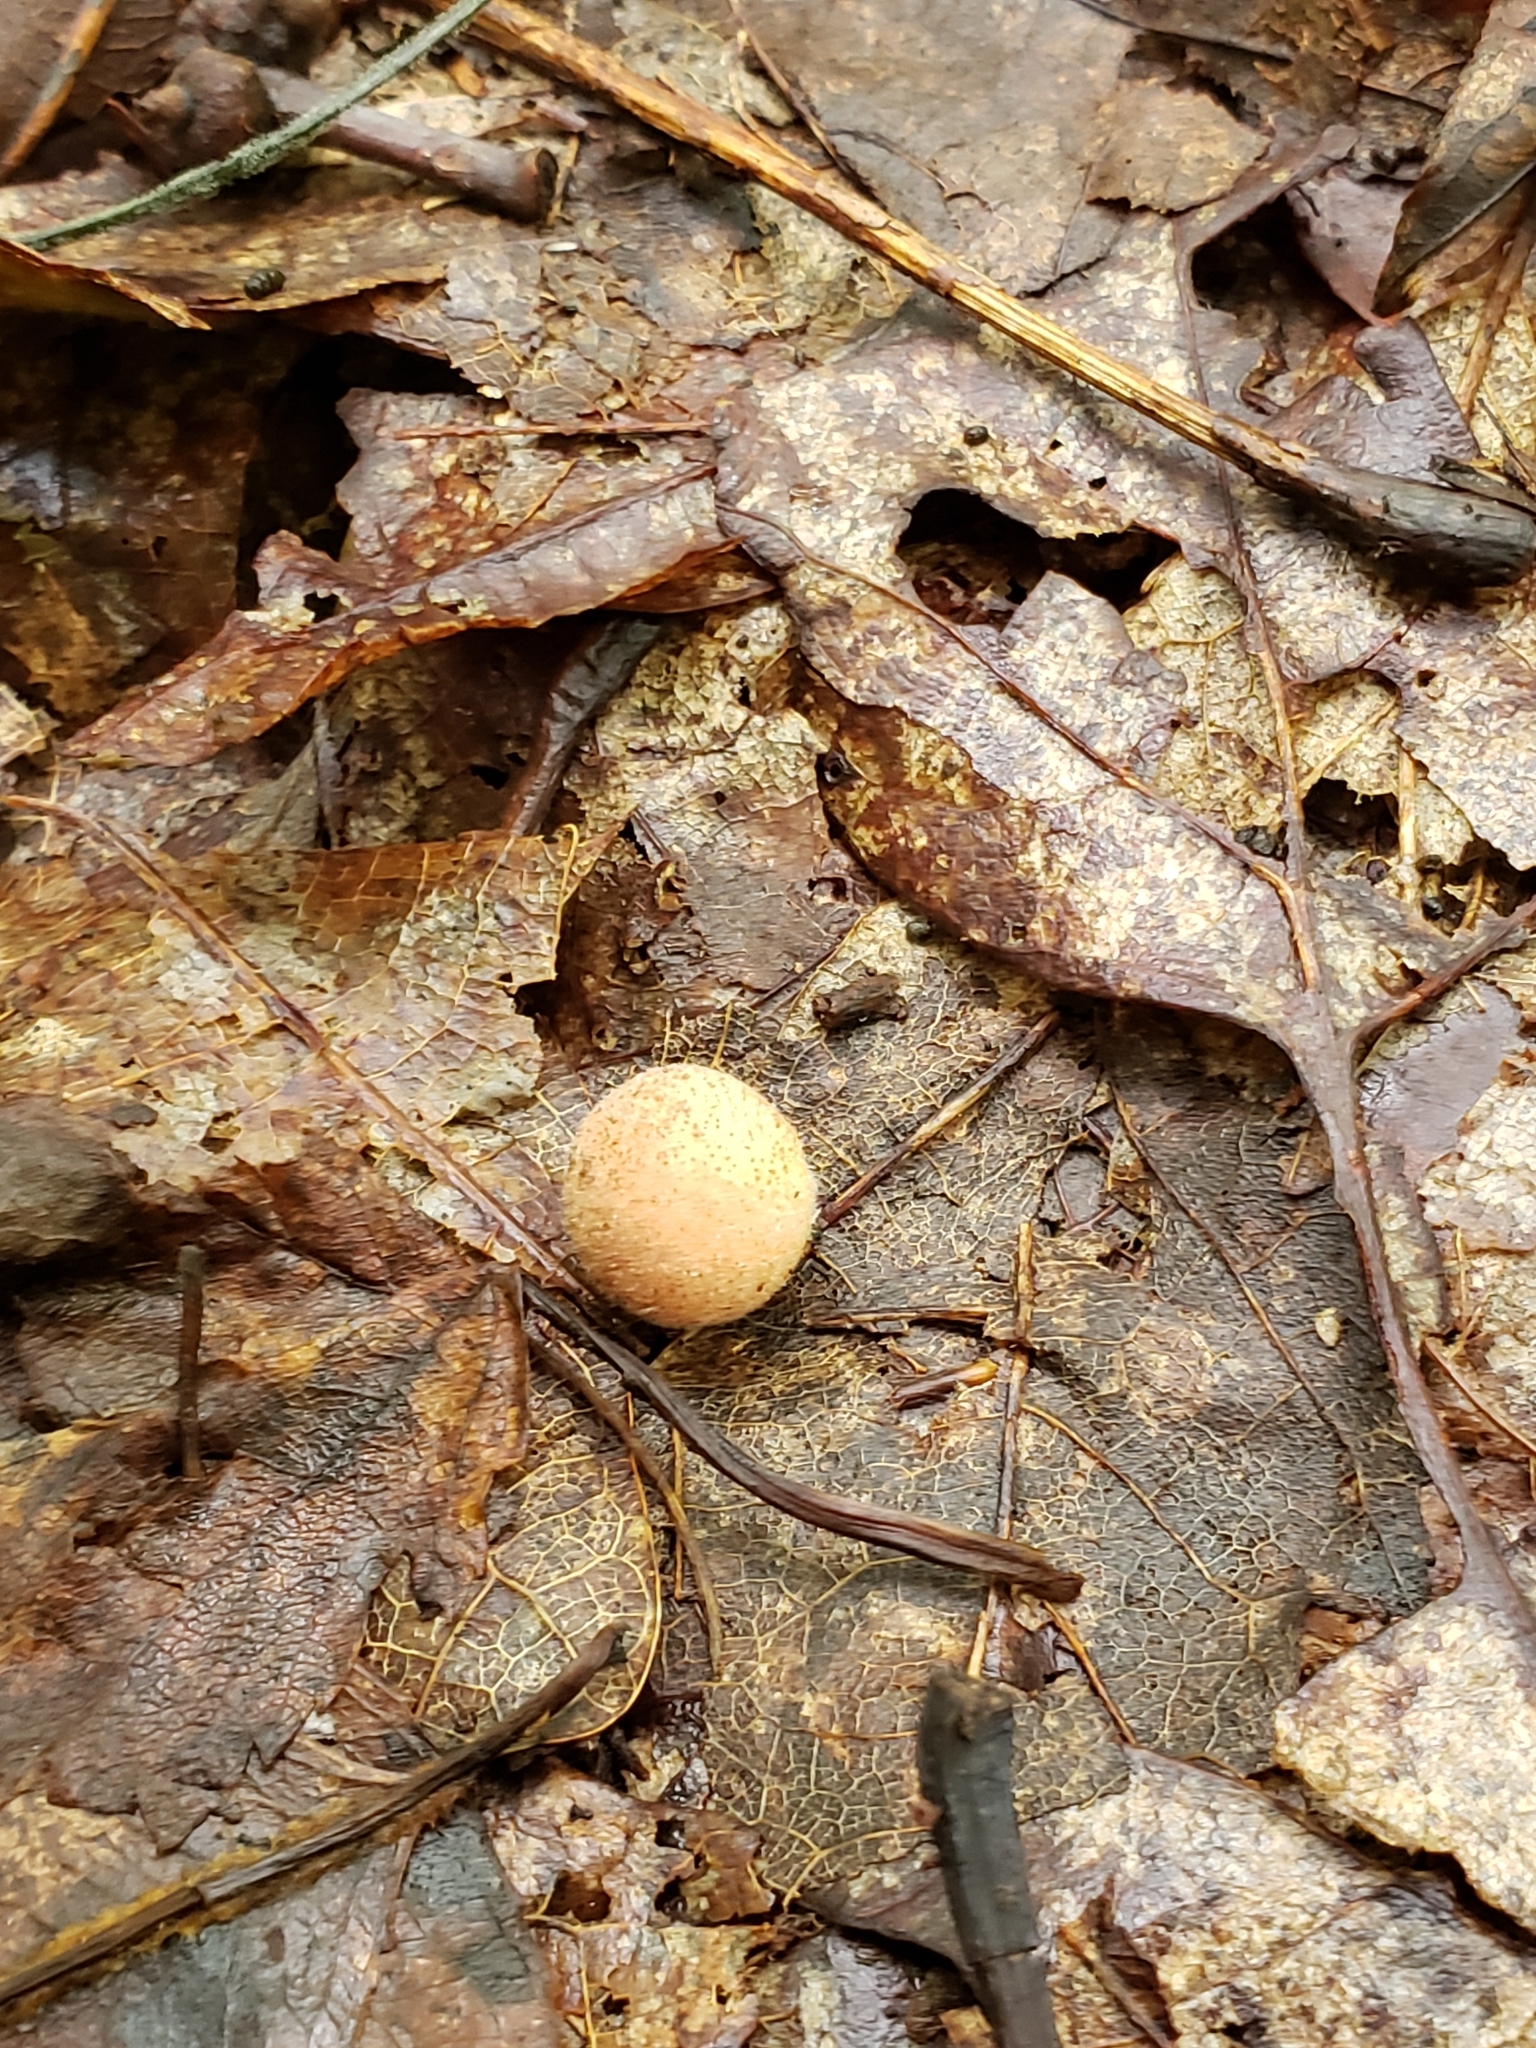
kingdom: Animalia
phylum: Arthropoda
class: Insecta
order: Hymenoptera
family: Cynipidae
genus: Philonix
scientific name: Philonix fulvicollis
